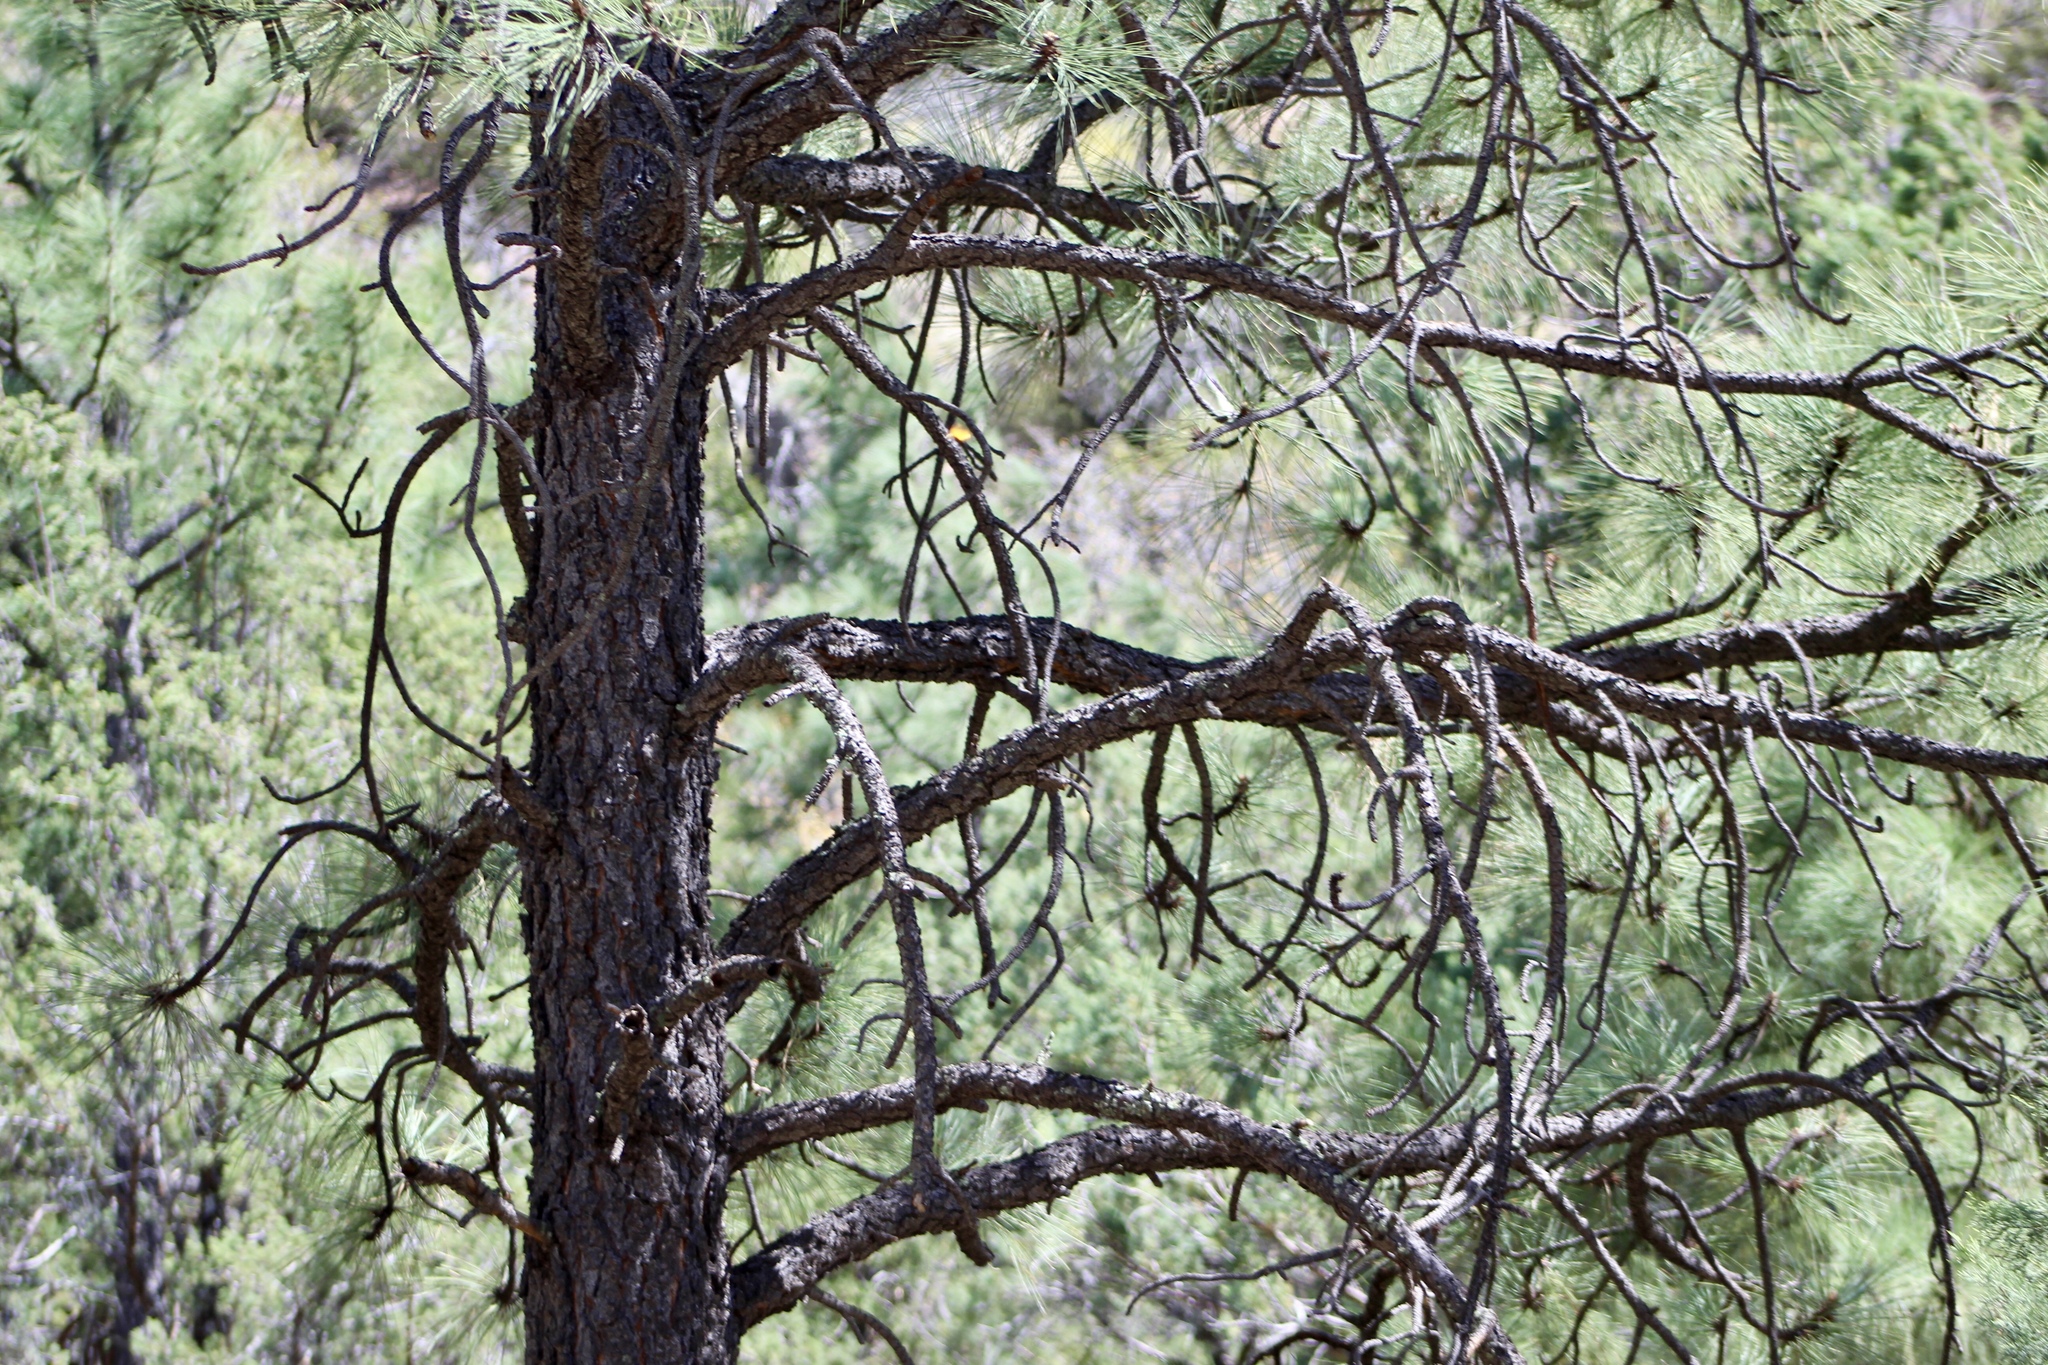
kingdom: Plantae
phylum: Tracheophyta
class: Pinopsida
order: Pinales
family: Pinaceae
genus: Pinus
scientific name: Pinus engelmannii
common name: Apache pine
